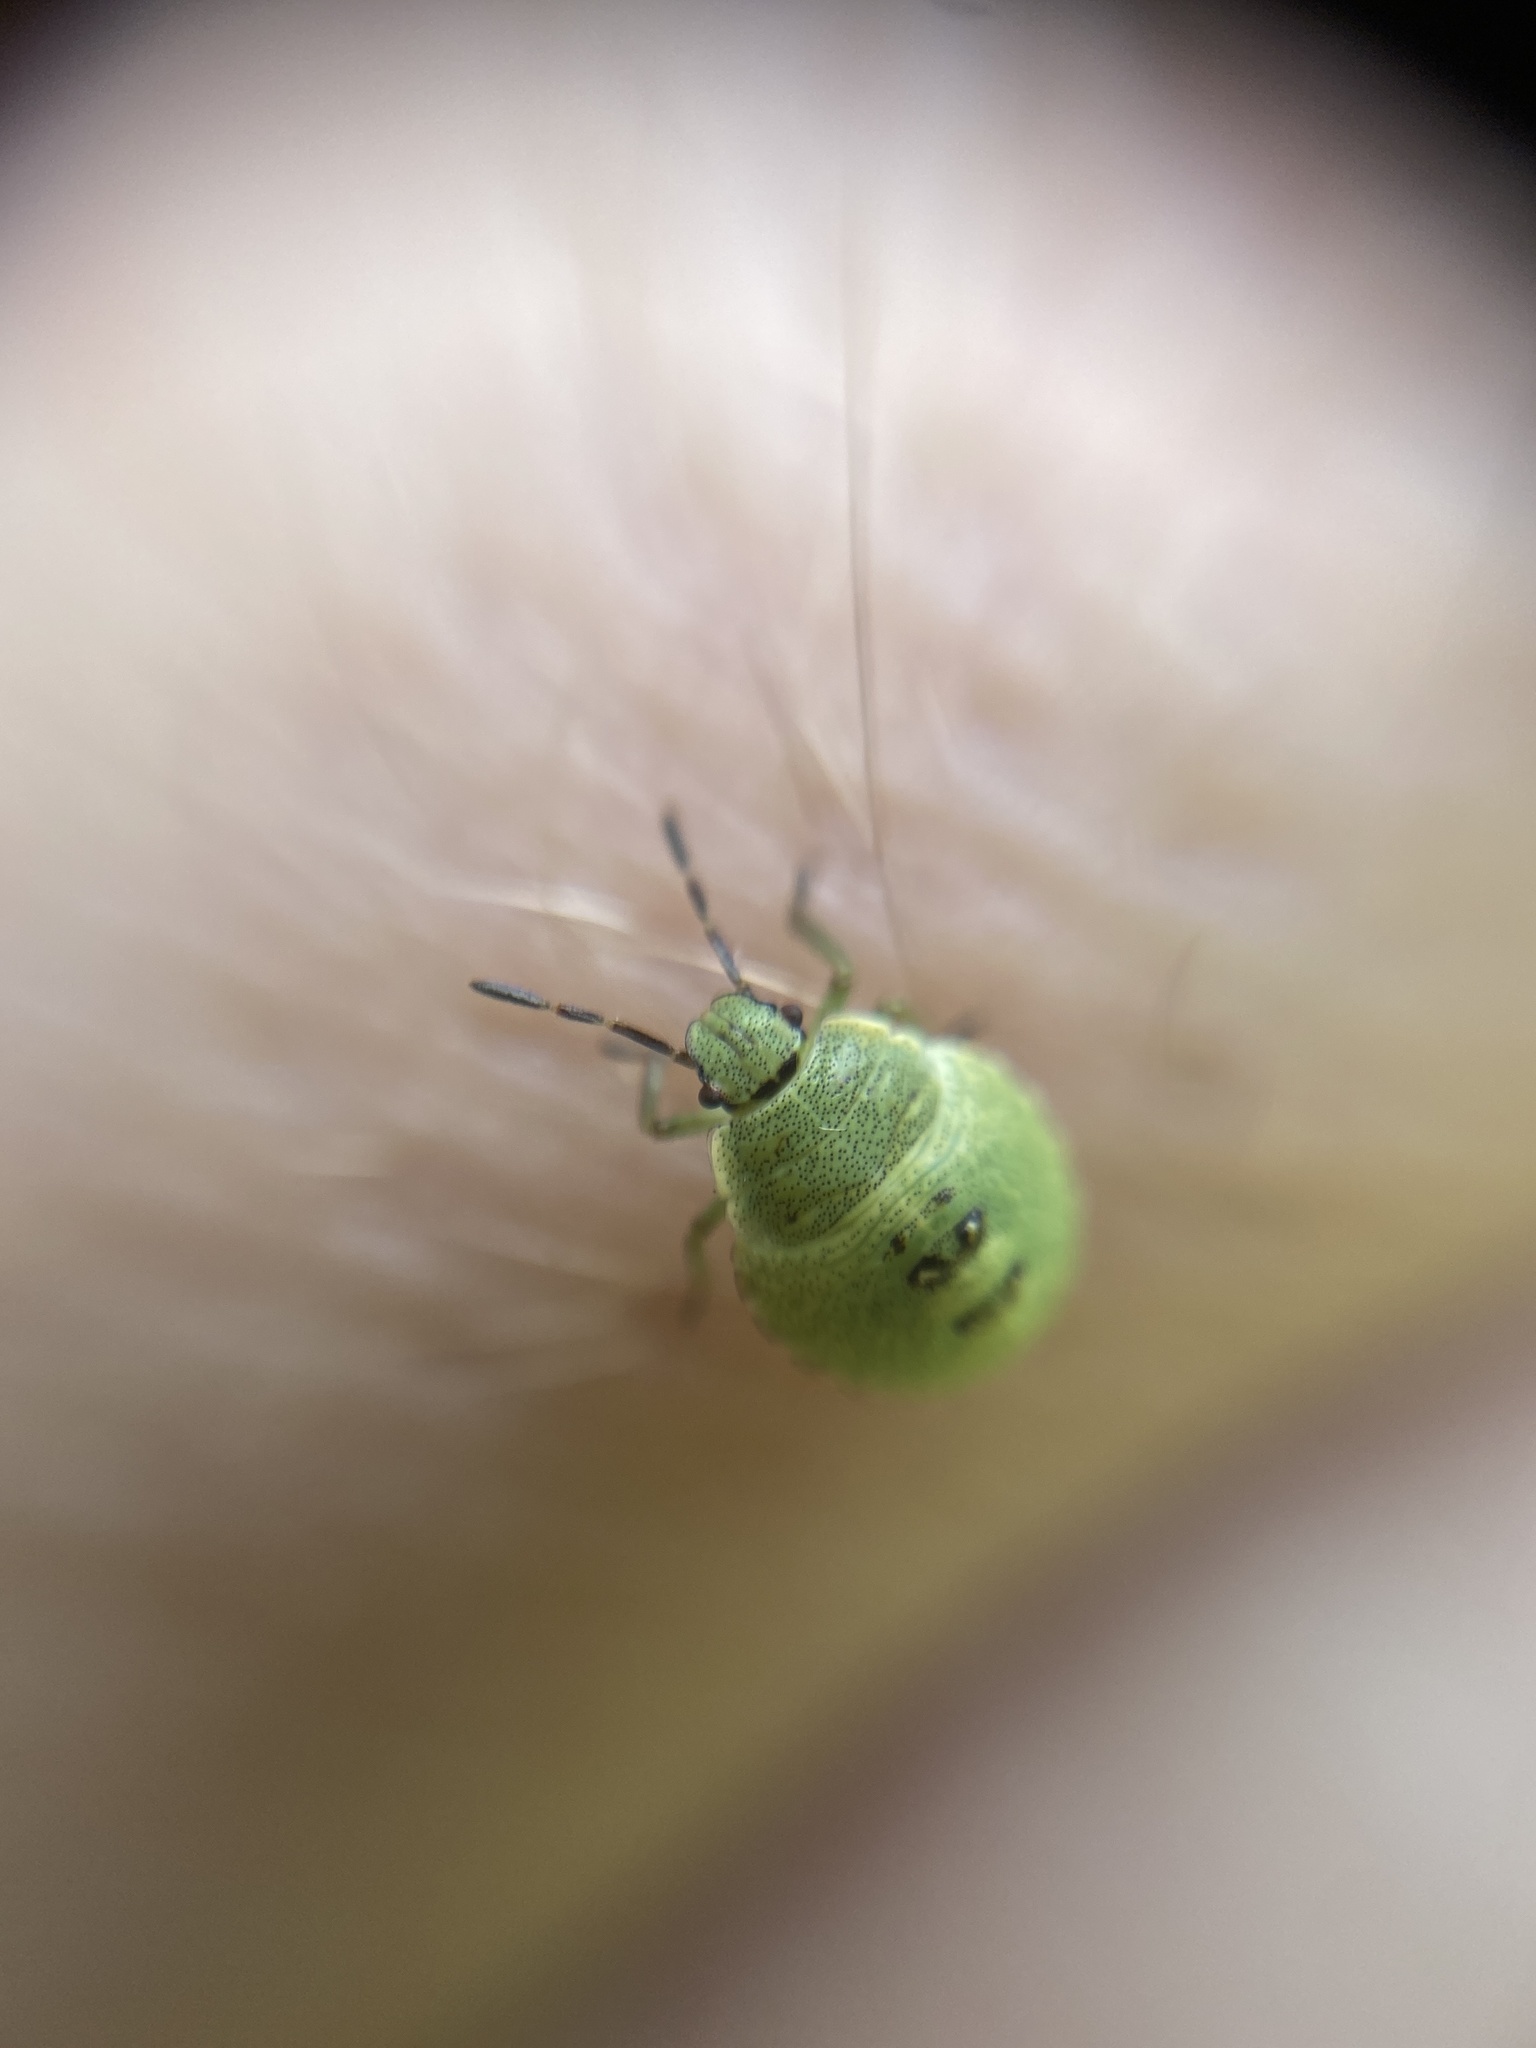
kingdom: Animalia
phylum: Arthropoda
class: Insecta
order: Hemiptera
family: Pentatomidae
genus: Palomena
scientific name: Palomena prasina
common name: Green shieldbug
